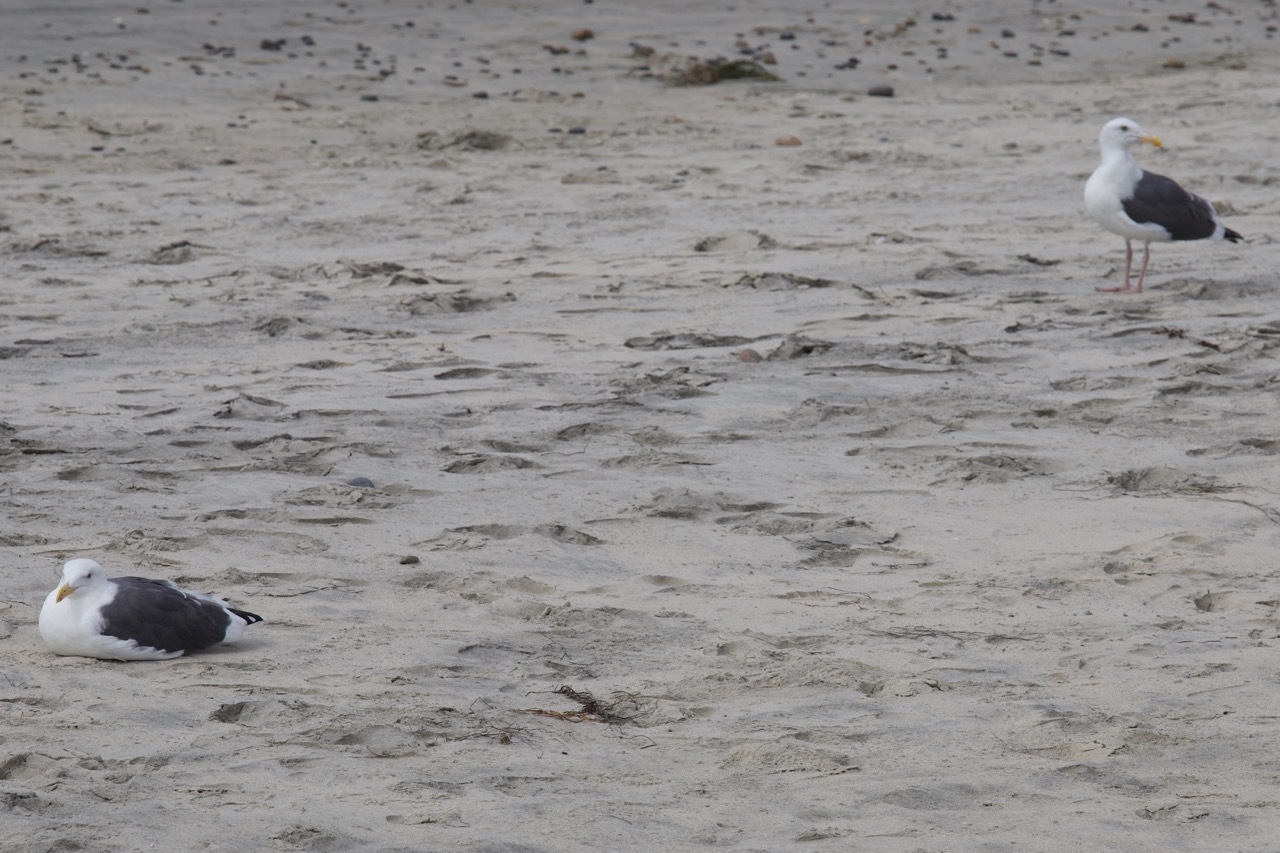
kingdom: Animalia
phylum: Chordata
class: Aves
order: Charadriiformes
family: Laridae
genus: Larus
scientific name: Larus occidentalis
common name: Western gull
